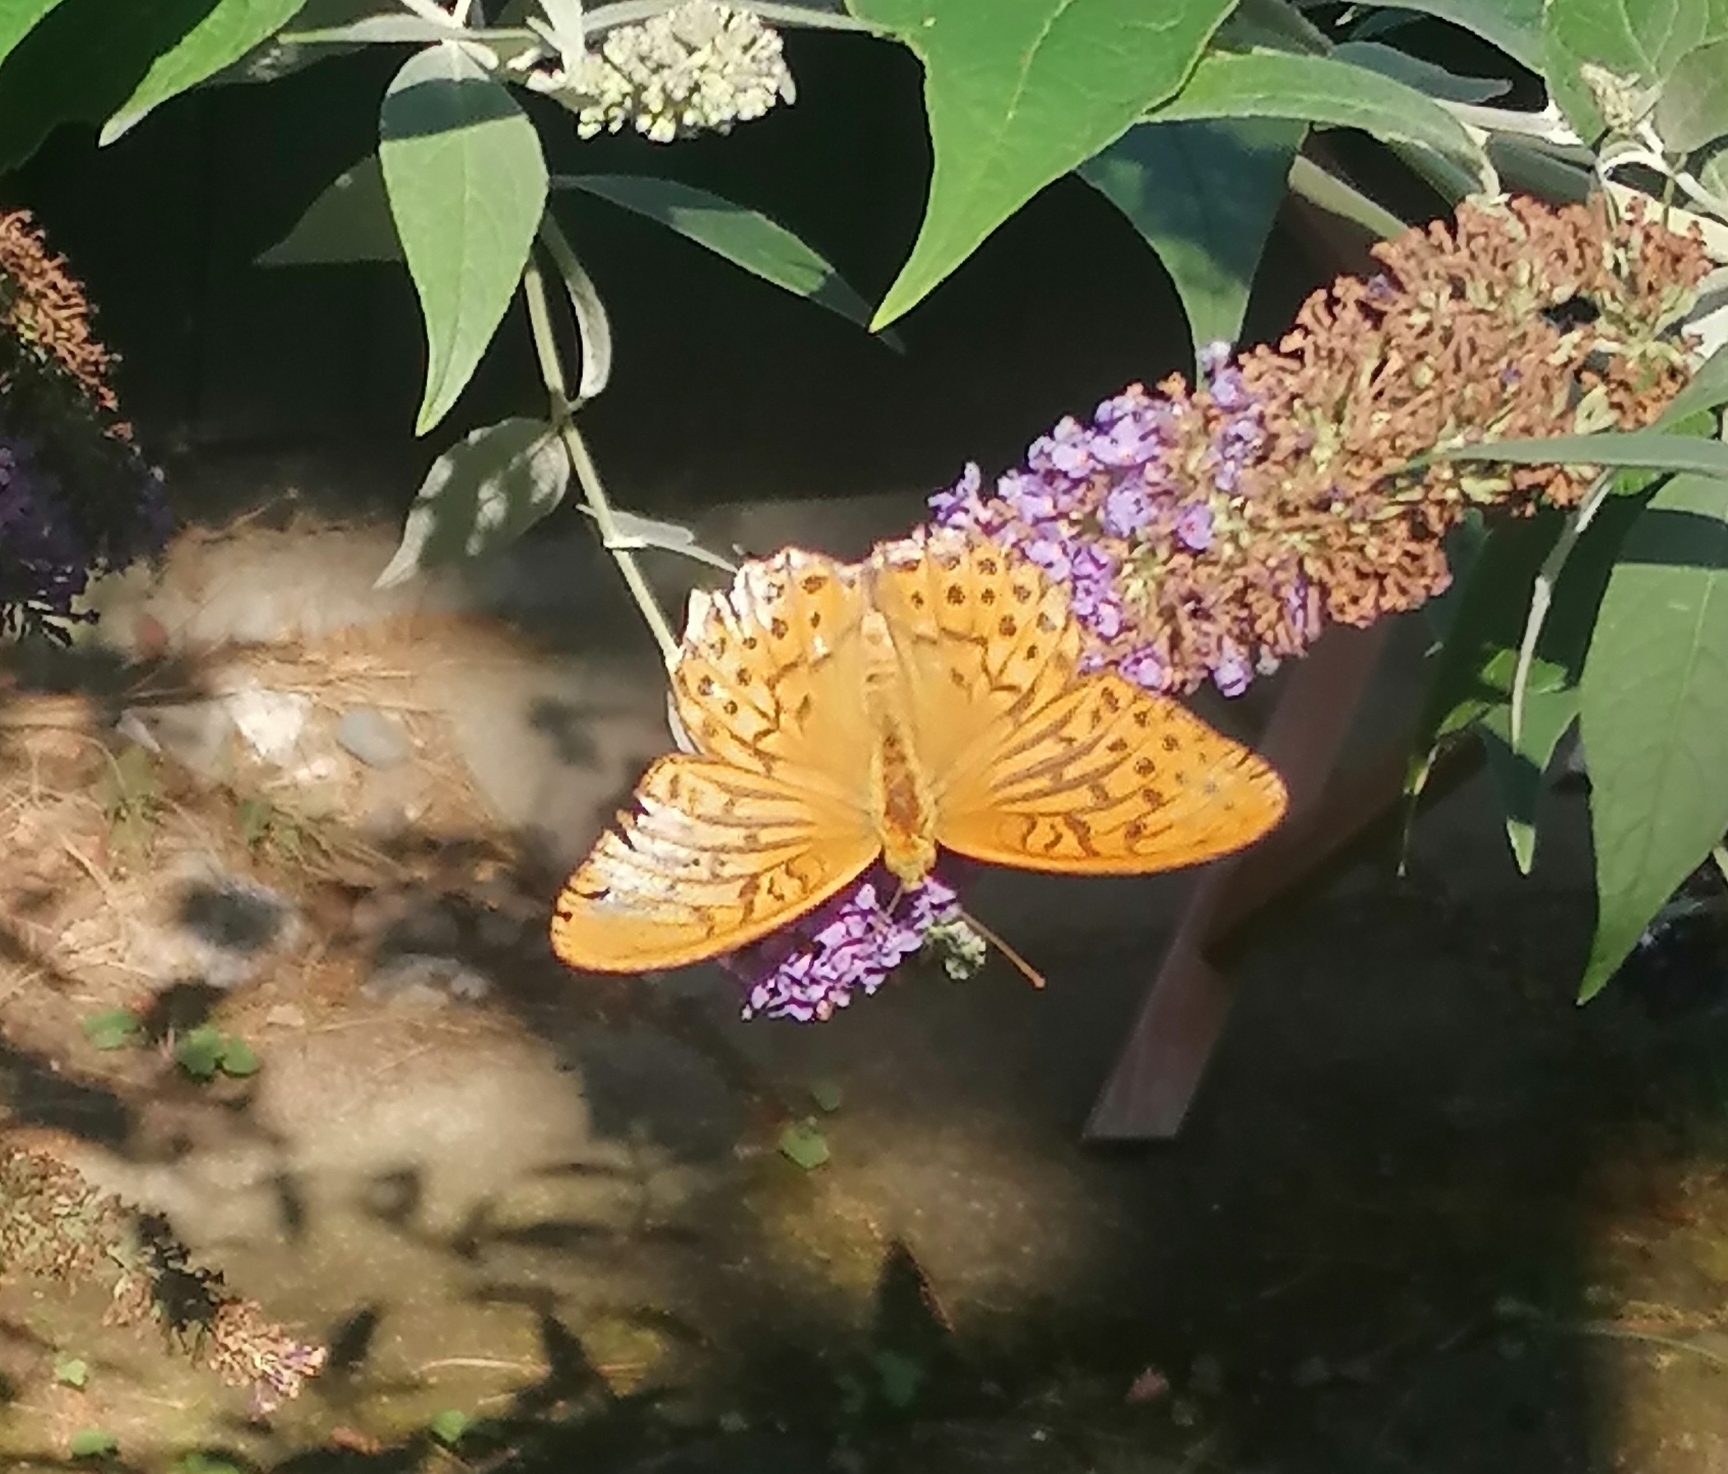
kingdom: Animalia
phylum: Arthropoda
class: Insecta
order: Lepidoptera
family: Nymphalidae
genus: Argynnis
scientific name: Argynnis paphia
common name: Silver-washed fritillary
